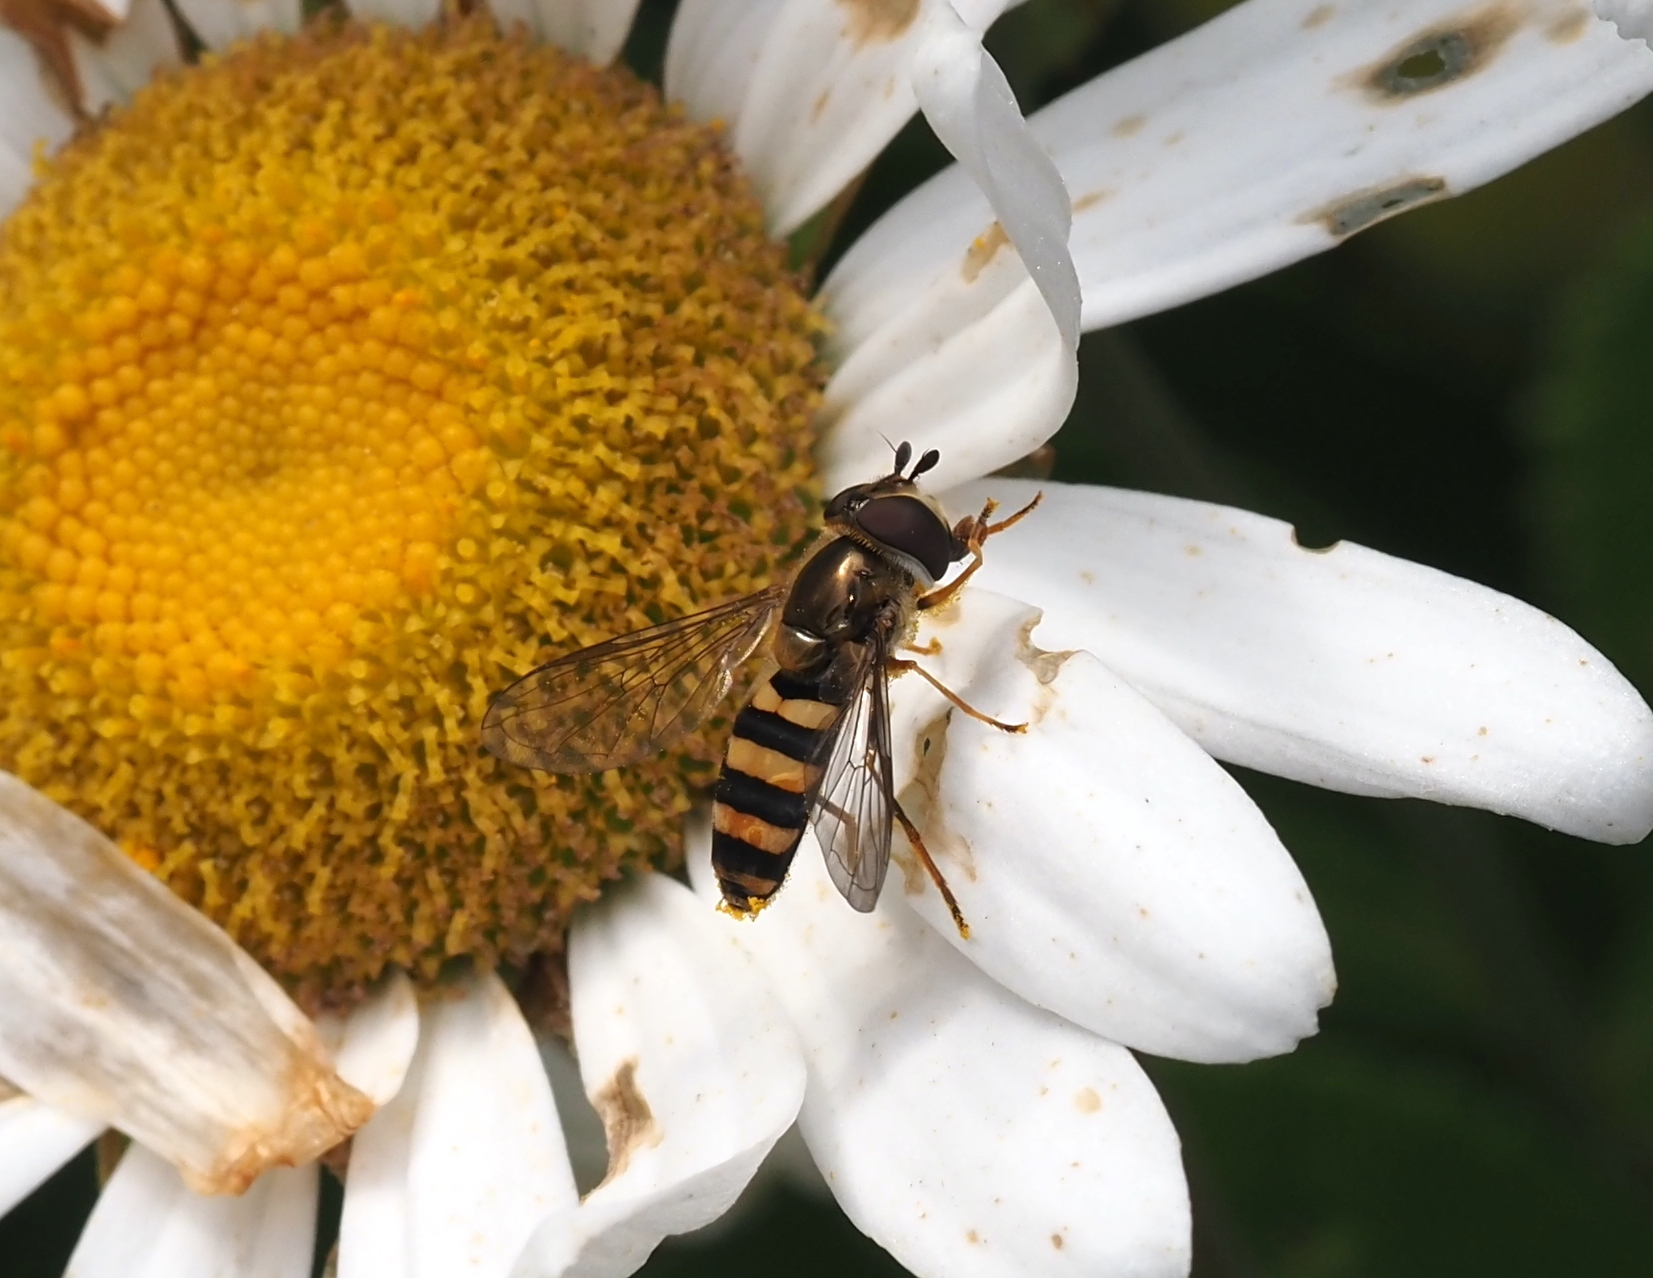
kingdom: Animalia
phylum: Arthropoda
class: Insecta
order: Diptera
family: Syrphidae
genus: Eupeodes
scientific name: Eupeodes
